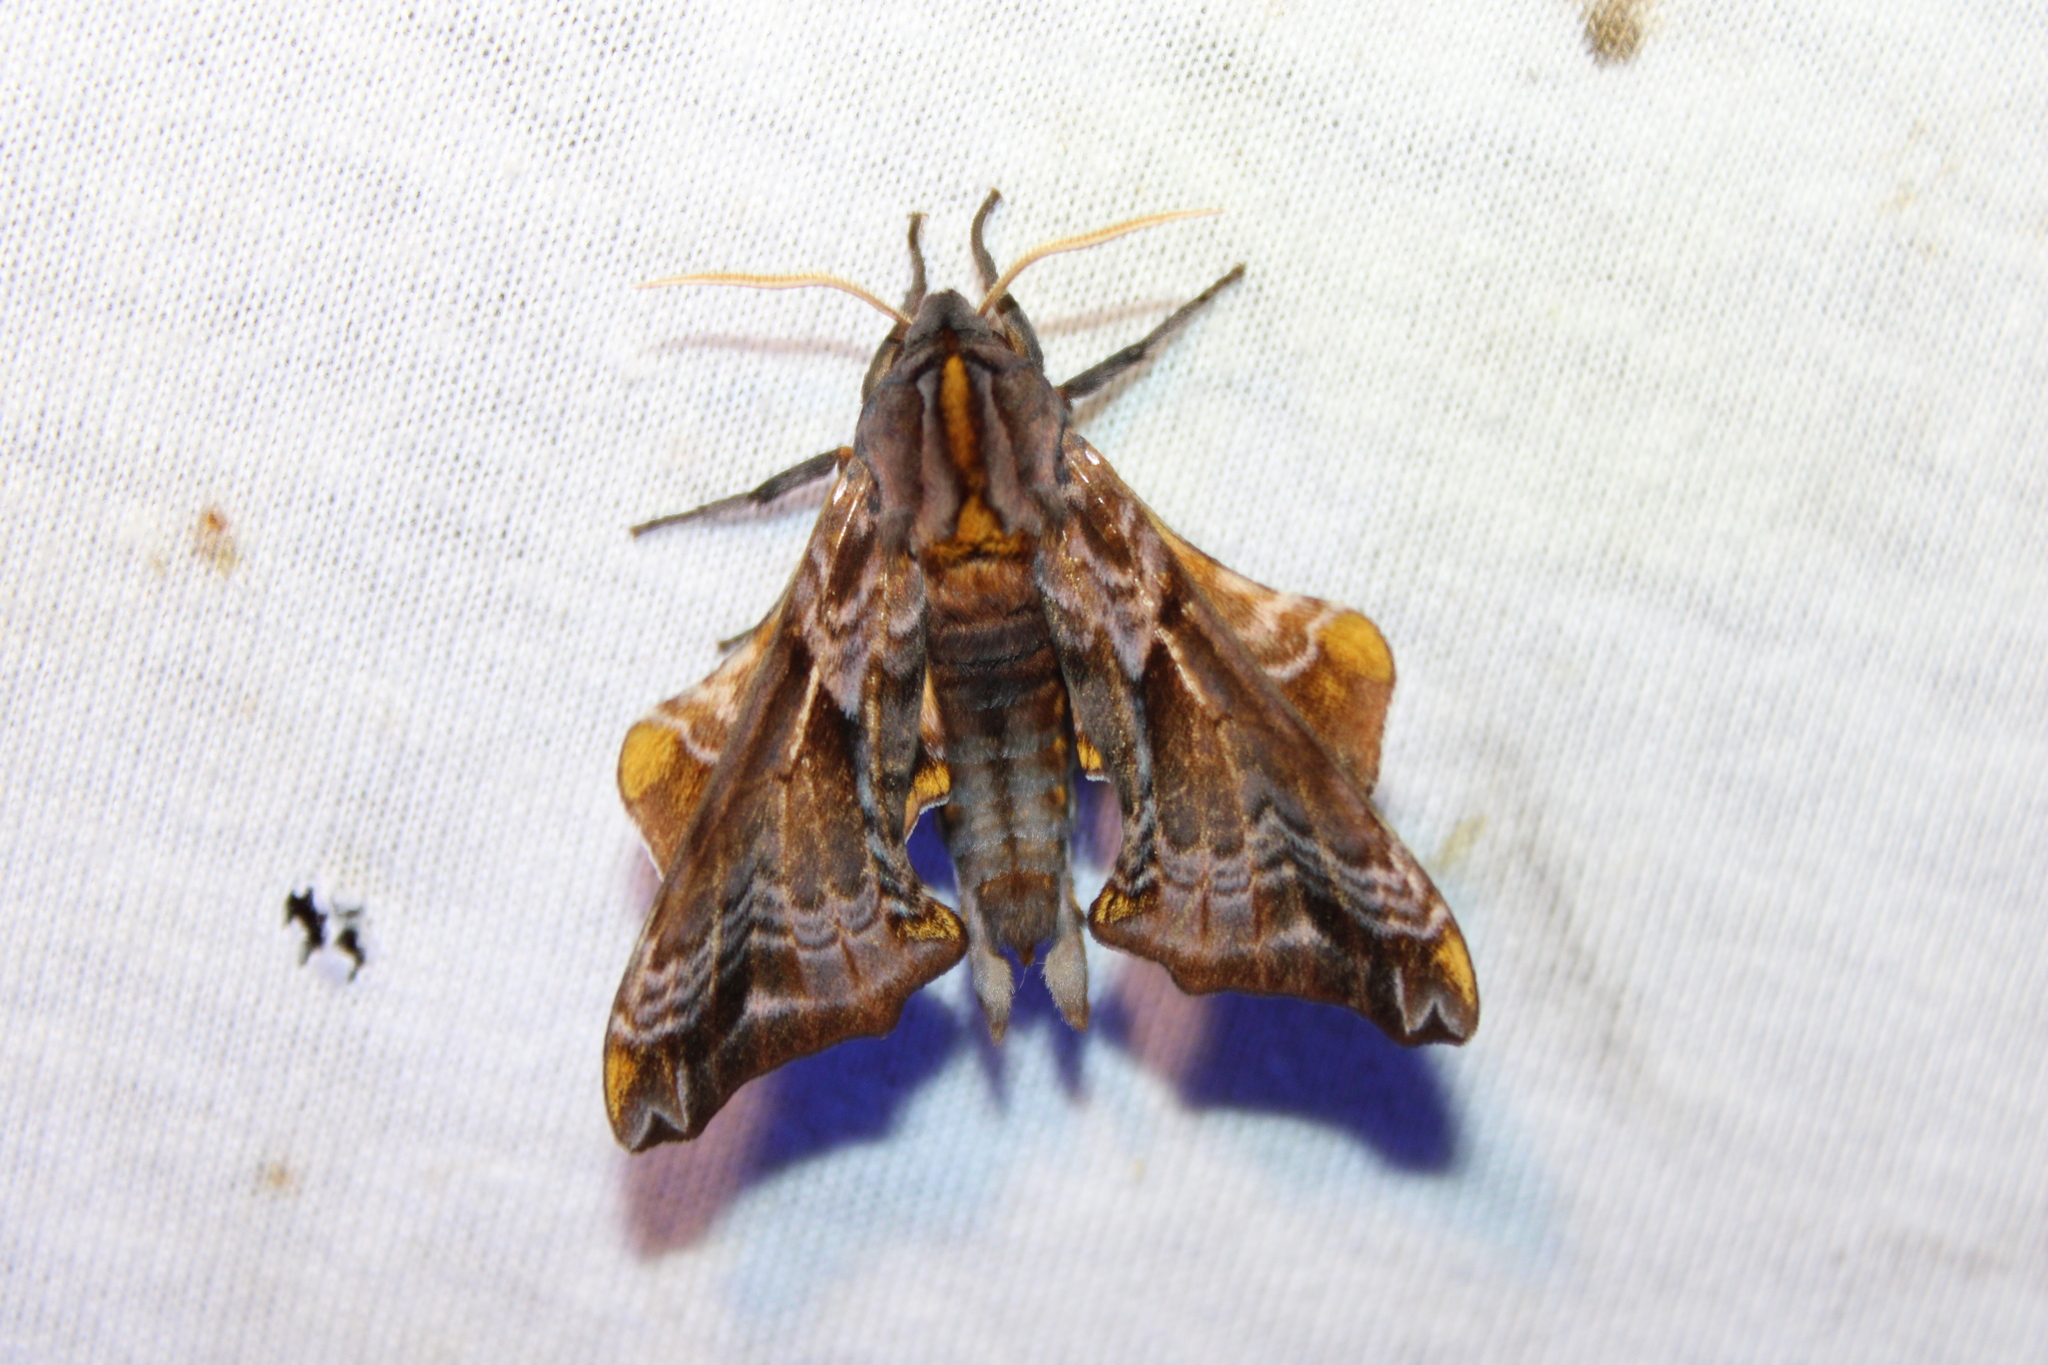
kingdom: Animalia
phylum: Arthropoda
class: Insecta
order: Lepidoptera
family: Sphingidae
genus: Paonias
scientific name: Paonias myops
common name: Small-eyed sphinx
